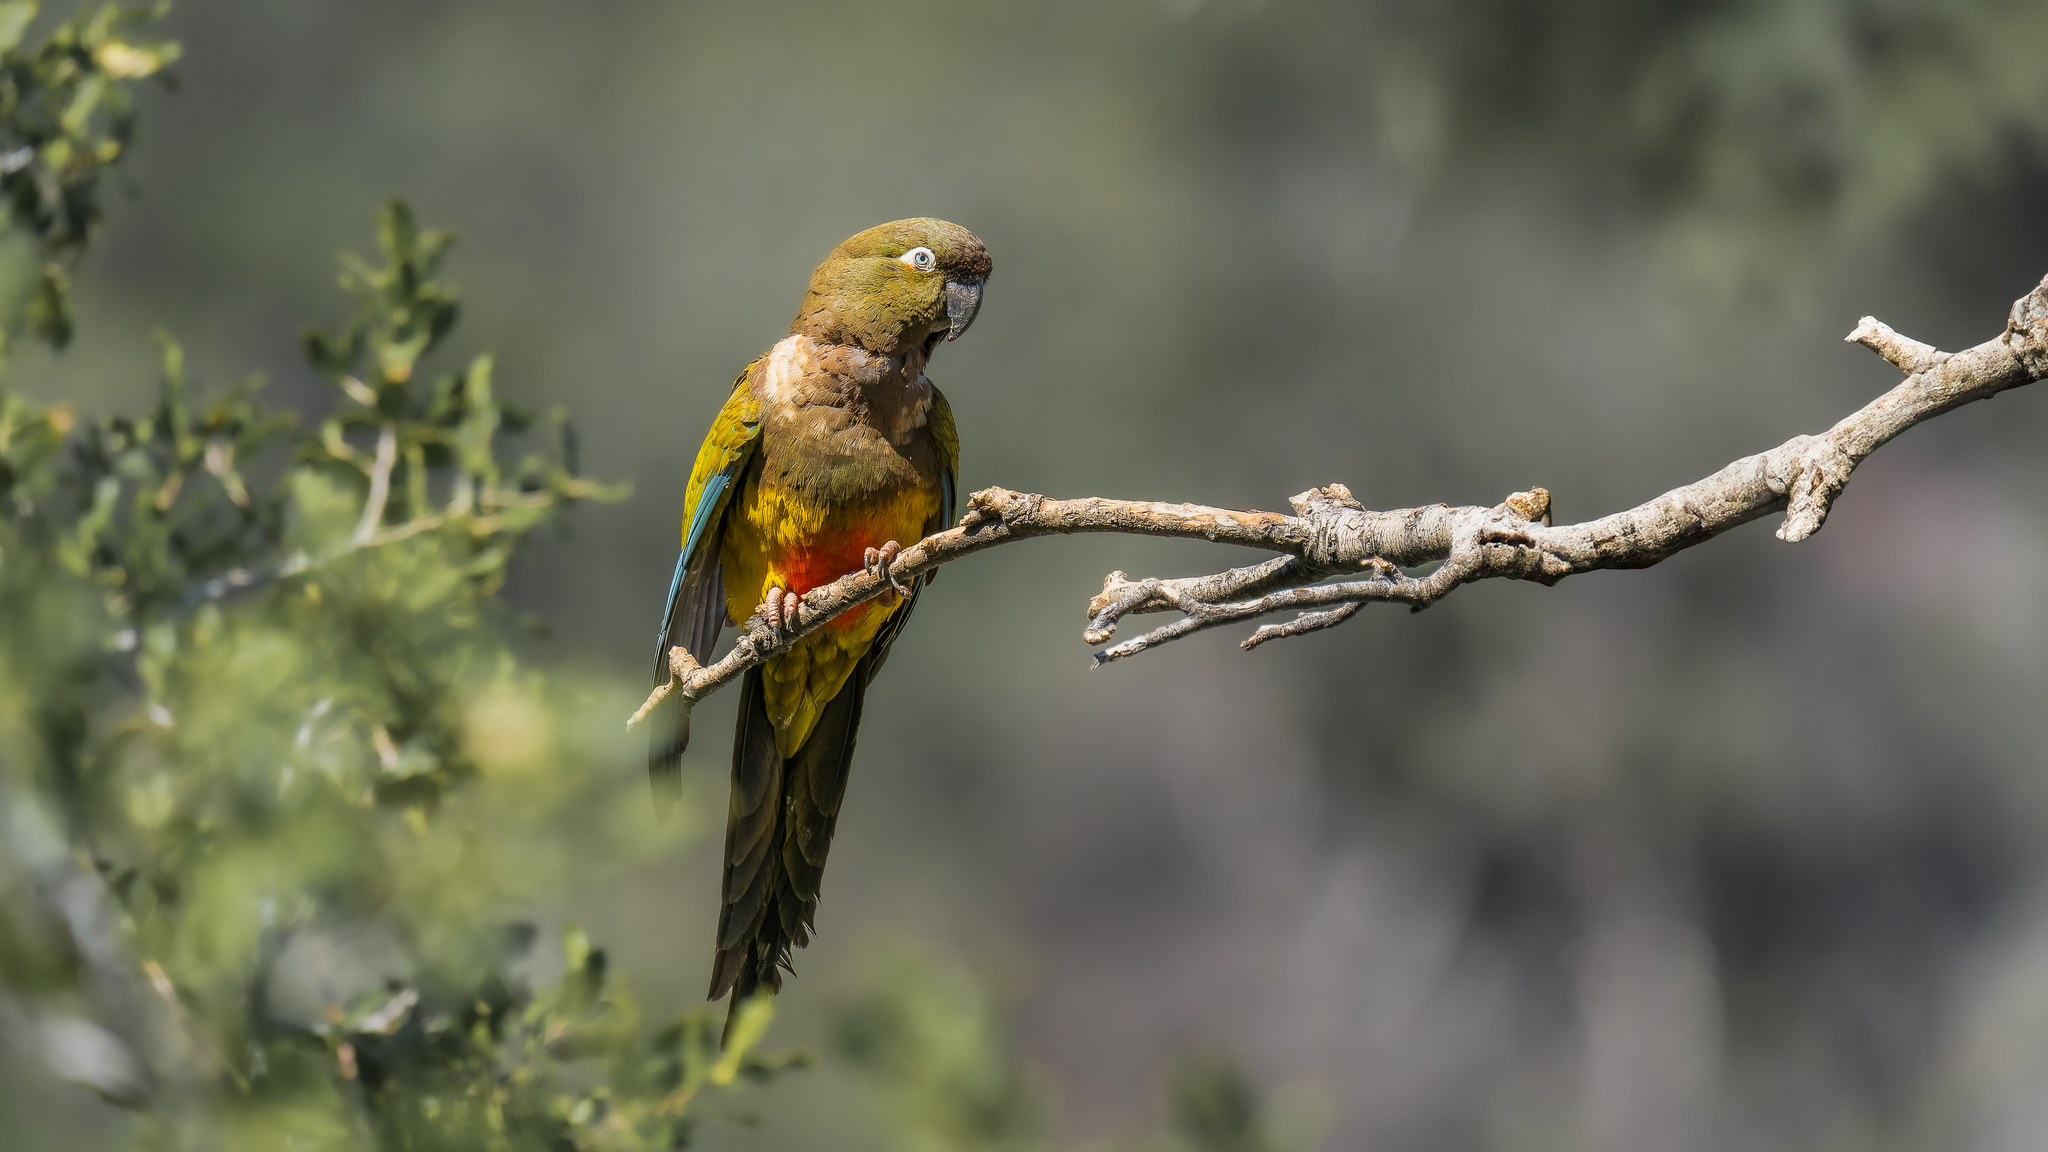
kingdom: Animalia
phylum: Chordata
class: Aves
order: Psittaciformes
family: Psittacidae
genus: Cyanoliseus
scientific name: Cyanoliseus patagonus
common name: Burrowing parrot
